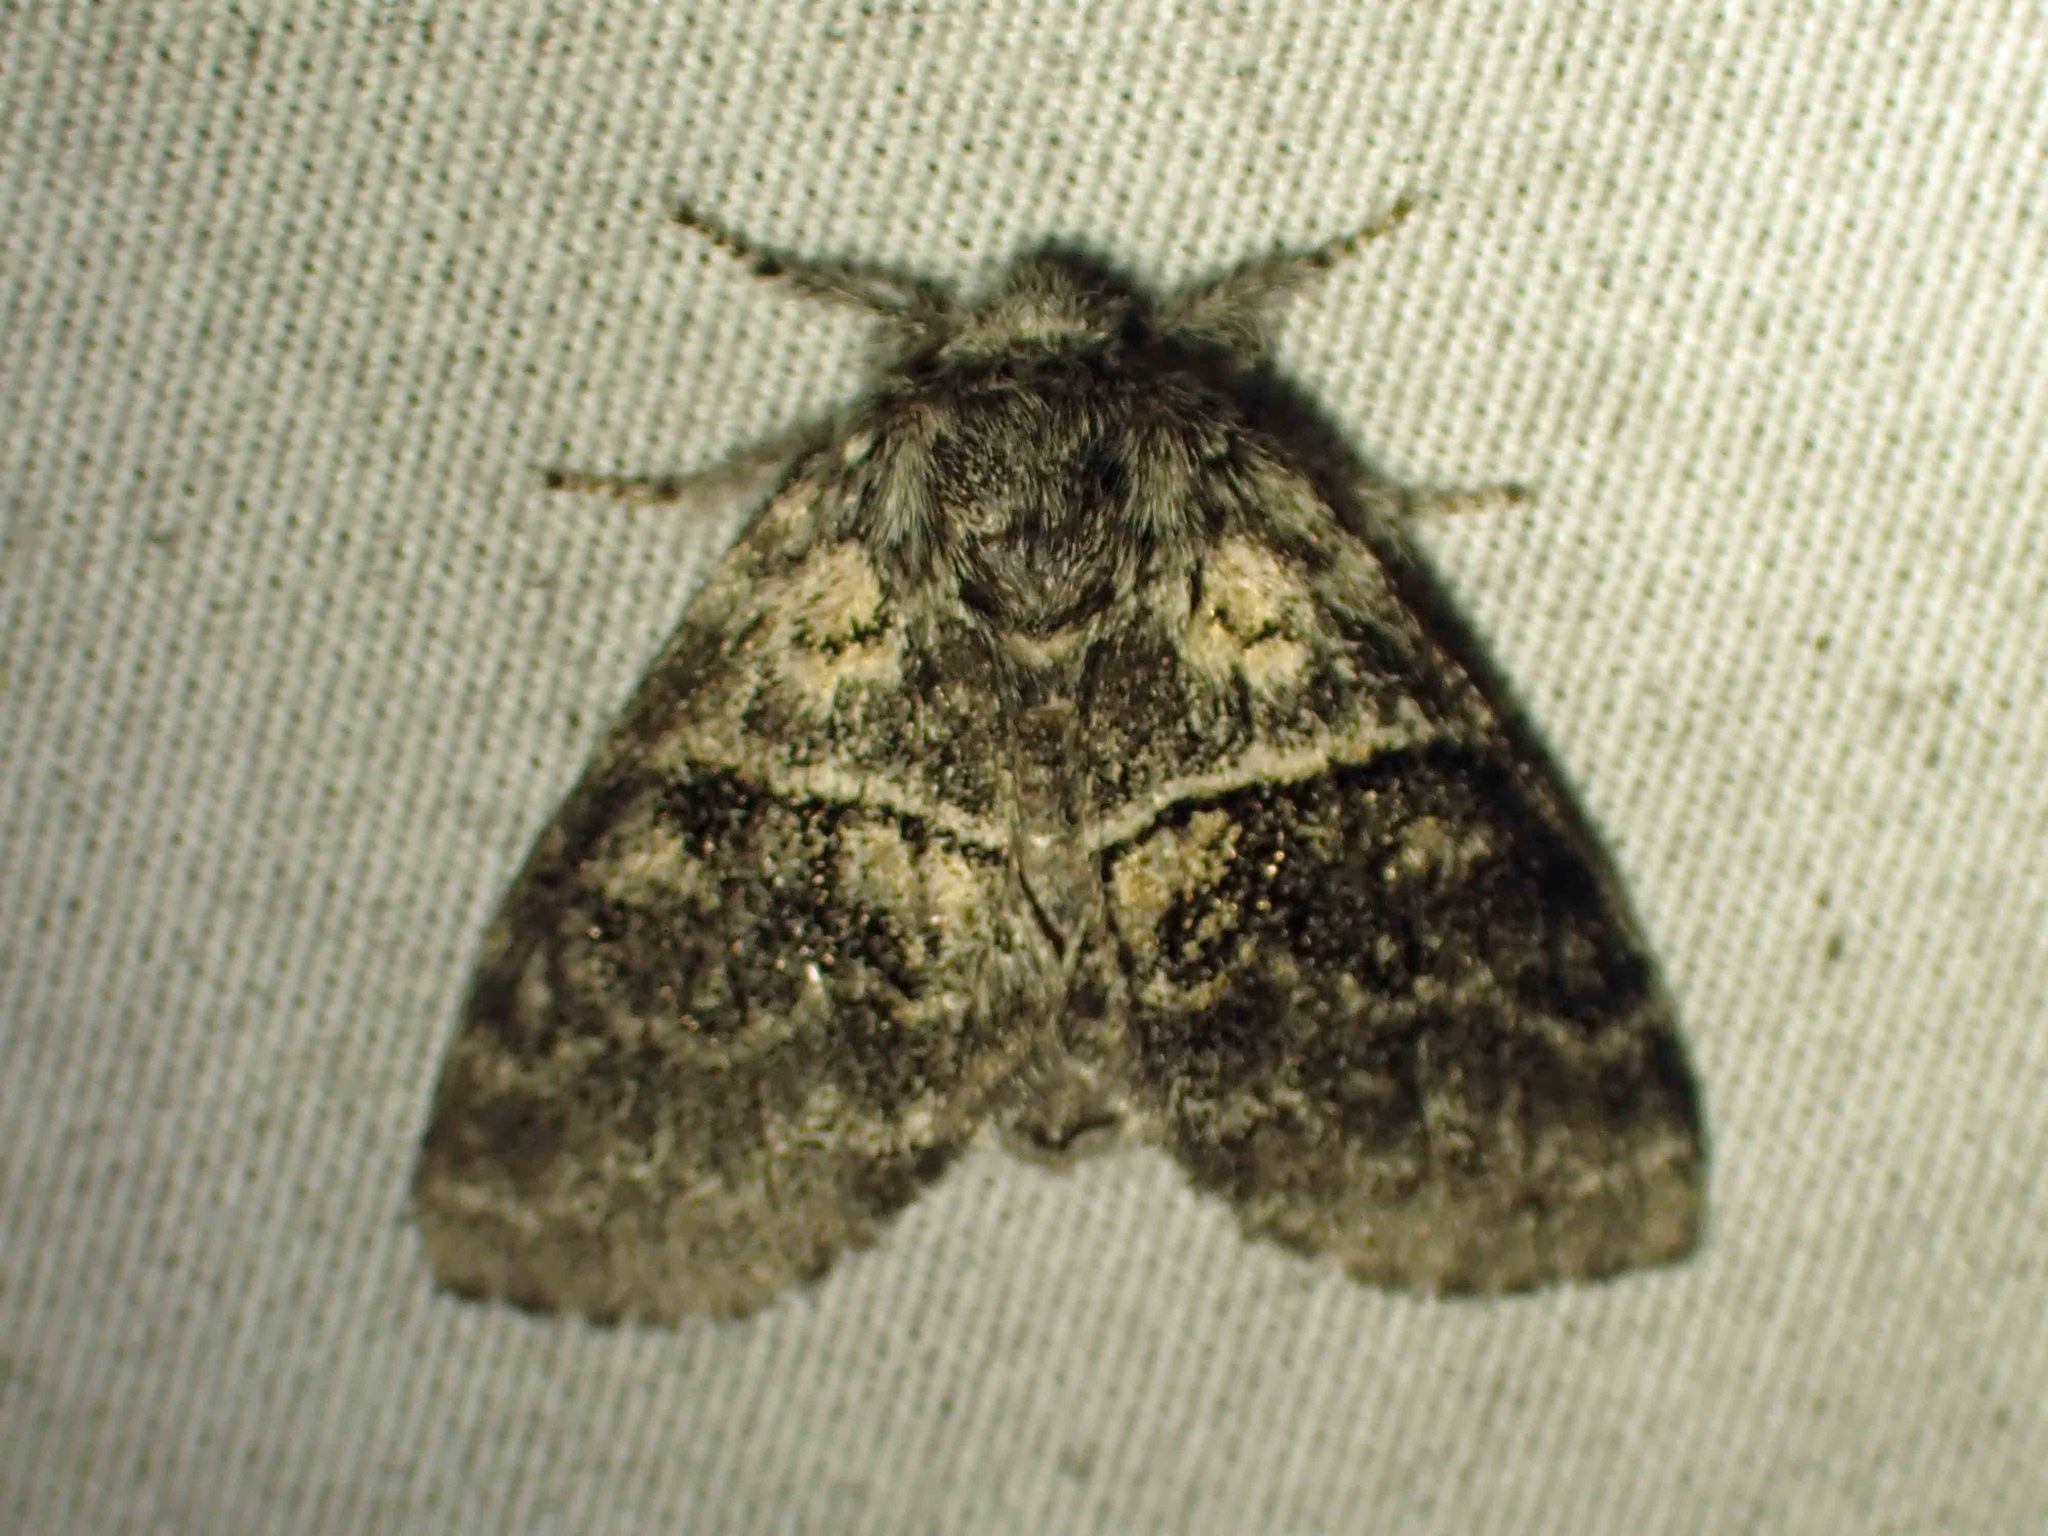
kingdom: Animalia
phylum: Arthropoda
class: Insecta
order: Lepidoptera
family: Notodontidae
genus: Gluphisia
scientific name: Gluphisia septentrionis
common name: Common gluphisia
